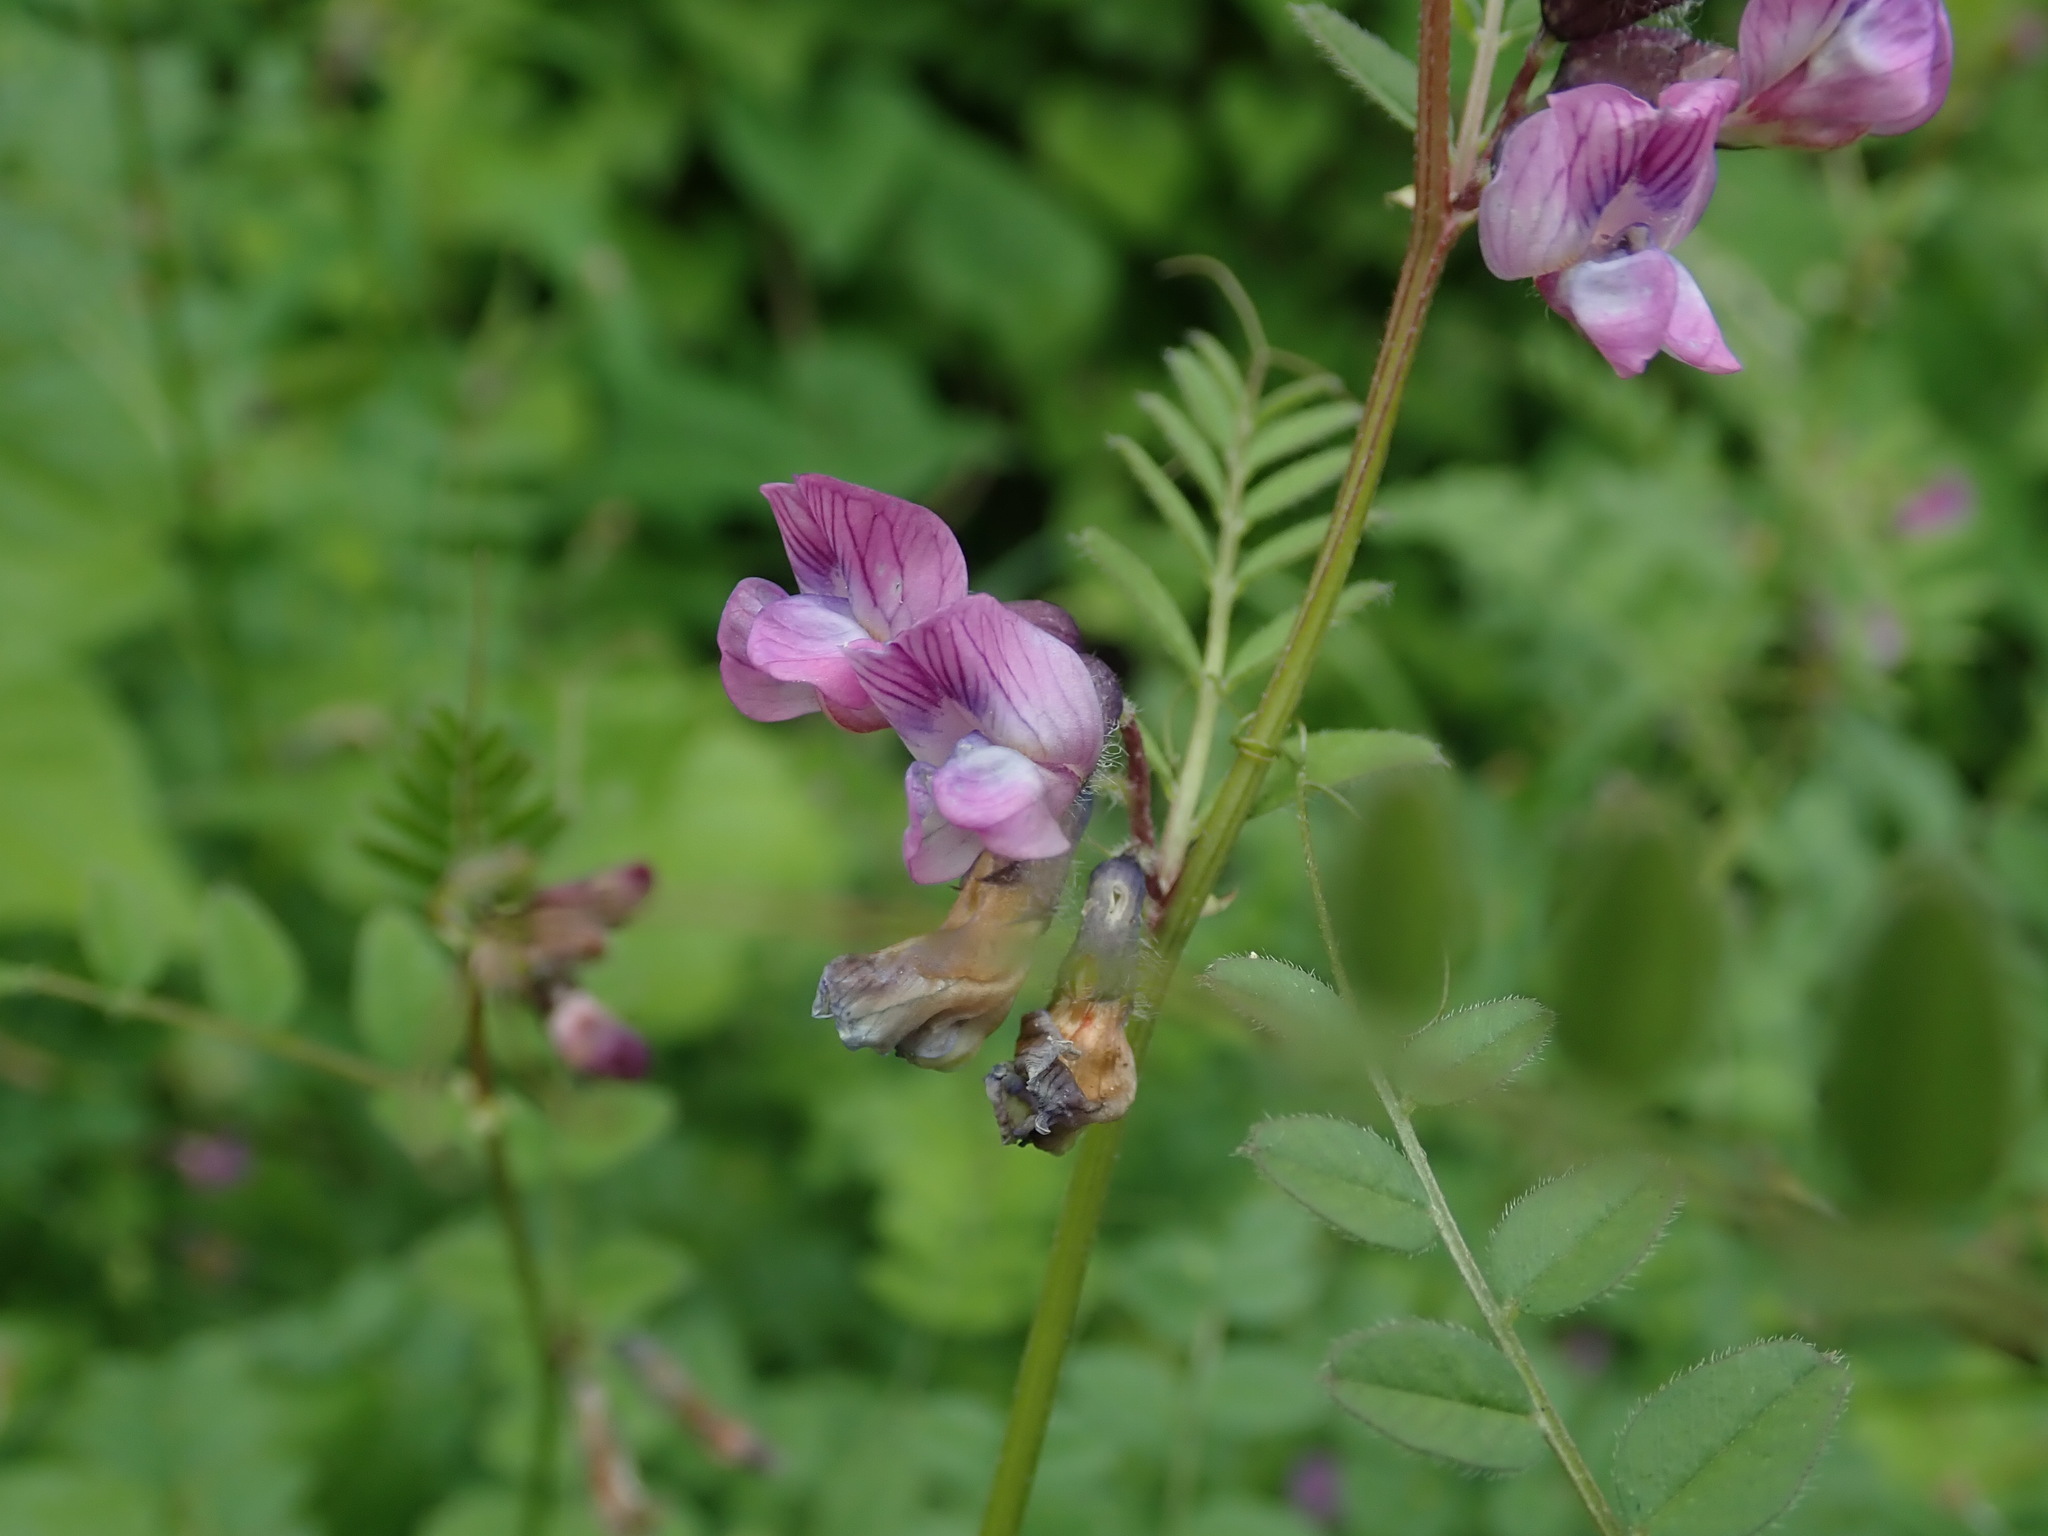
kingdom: Plantae
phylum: Tracheophyta
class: Magnoliopsida
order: Fabales
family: Fabaceae
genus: Vicia
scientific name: Vicia sepium
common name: Bush vetch
